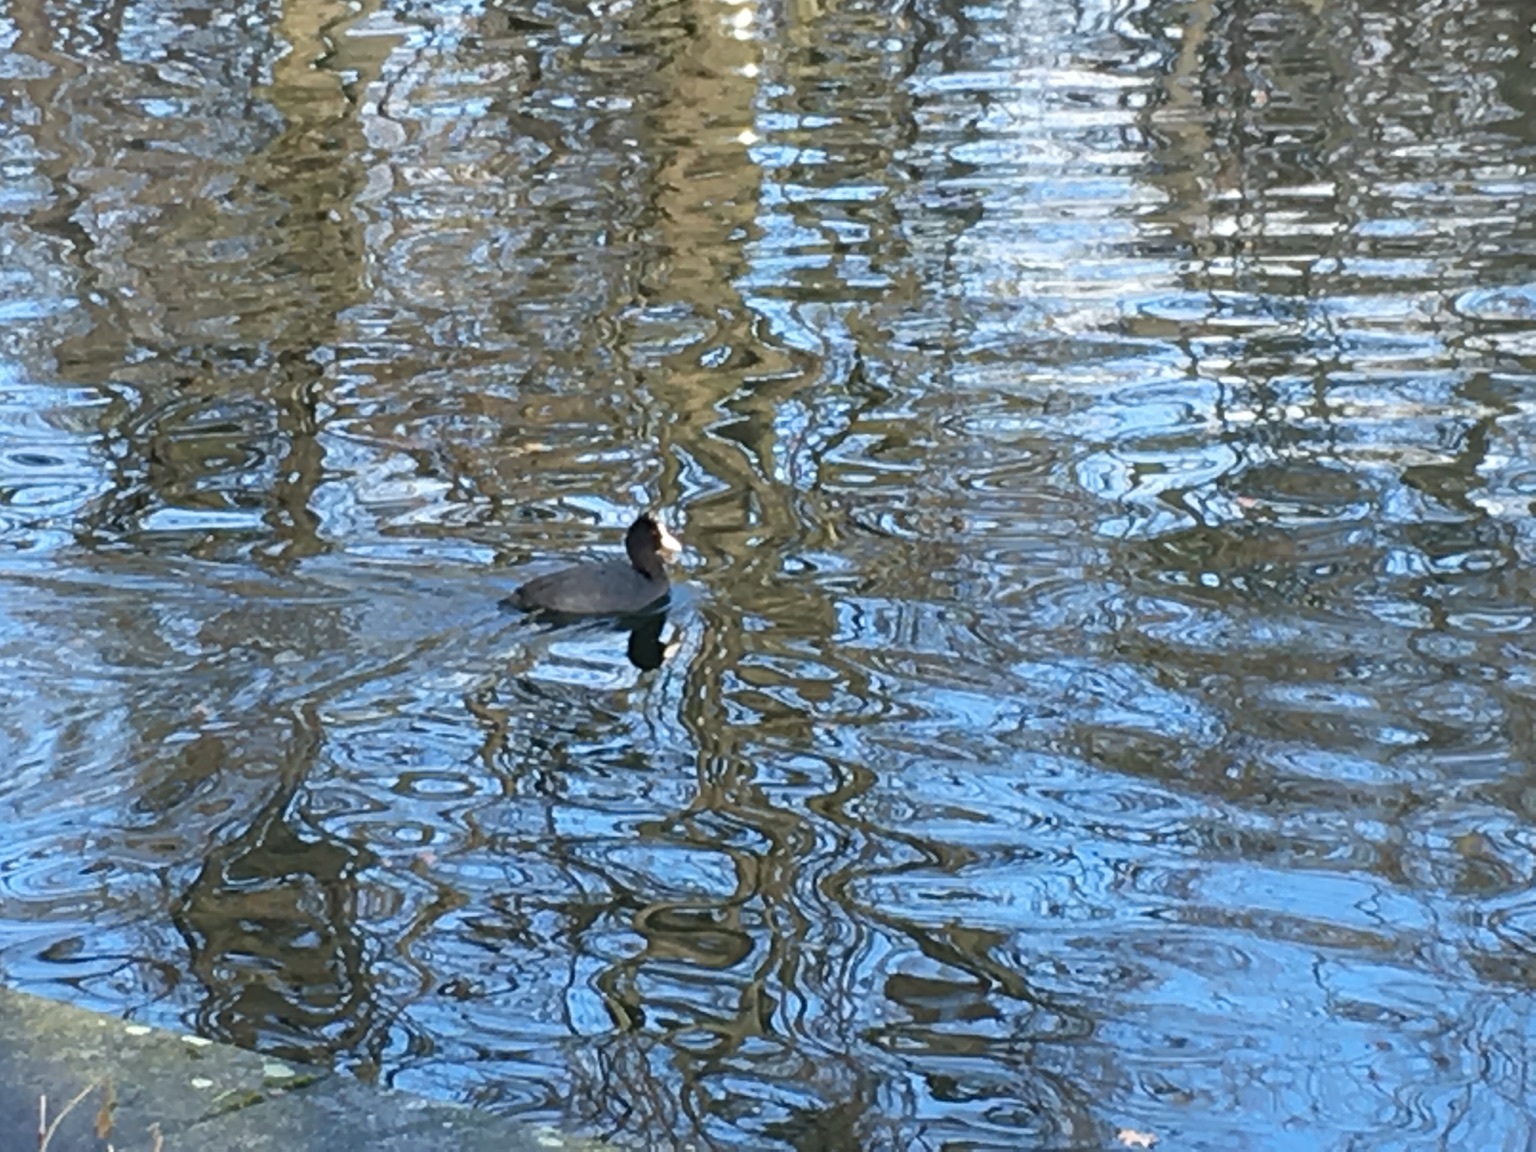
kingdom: Animalia
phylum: Chordata
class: Aves
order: Gruiformes
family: Rallidae
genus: Fulica
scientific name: Fulica atra
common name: Eurasian coot
